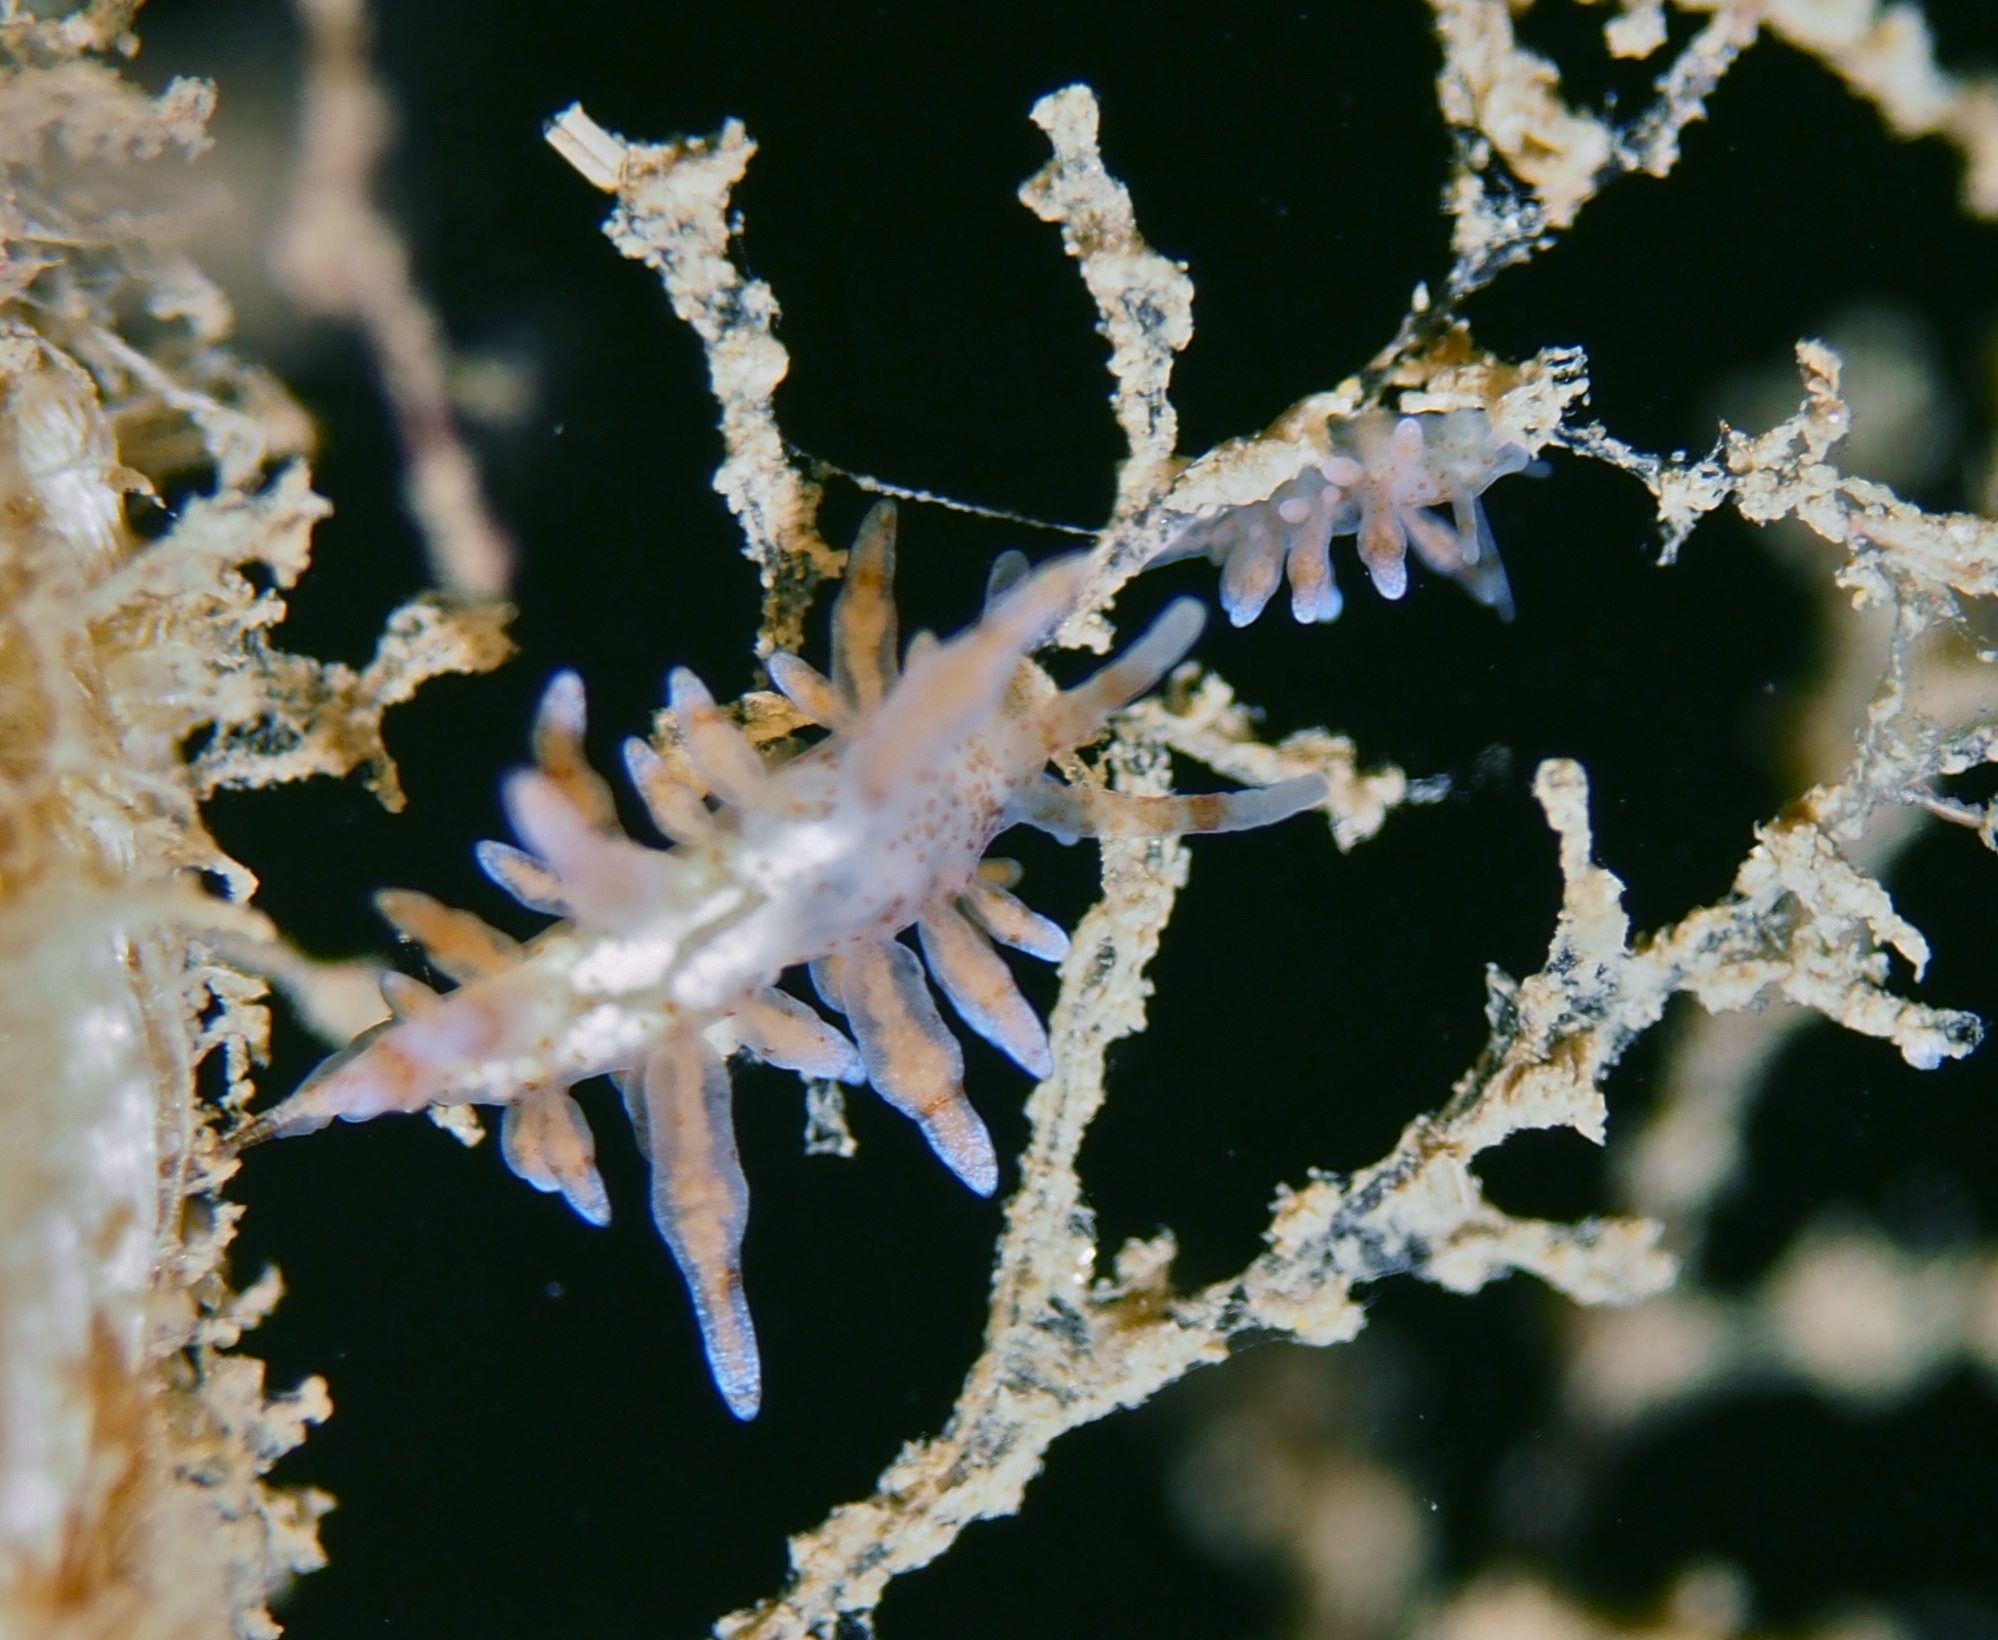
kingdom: Animalia
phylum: Mollusca
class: Gastropoda
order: Nudibranchia
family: Eubranchidae
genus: Eubranchus
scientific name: Eubranchus rupium
